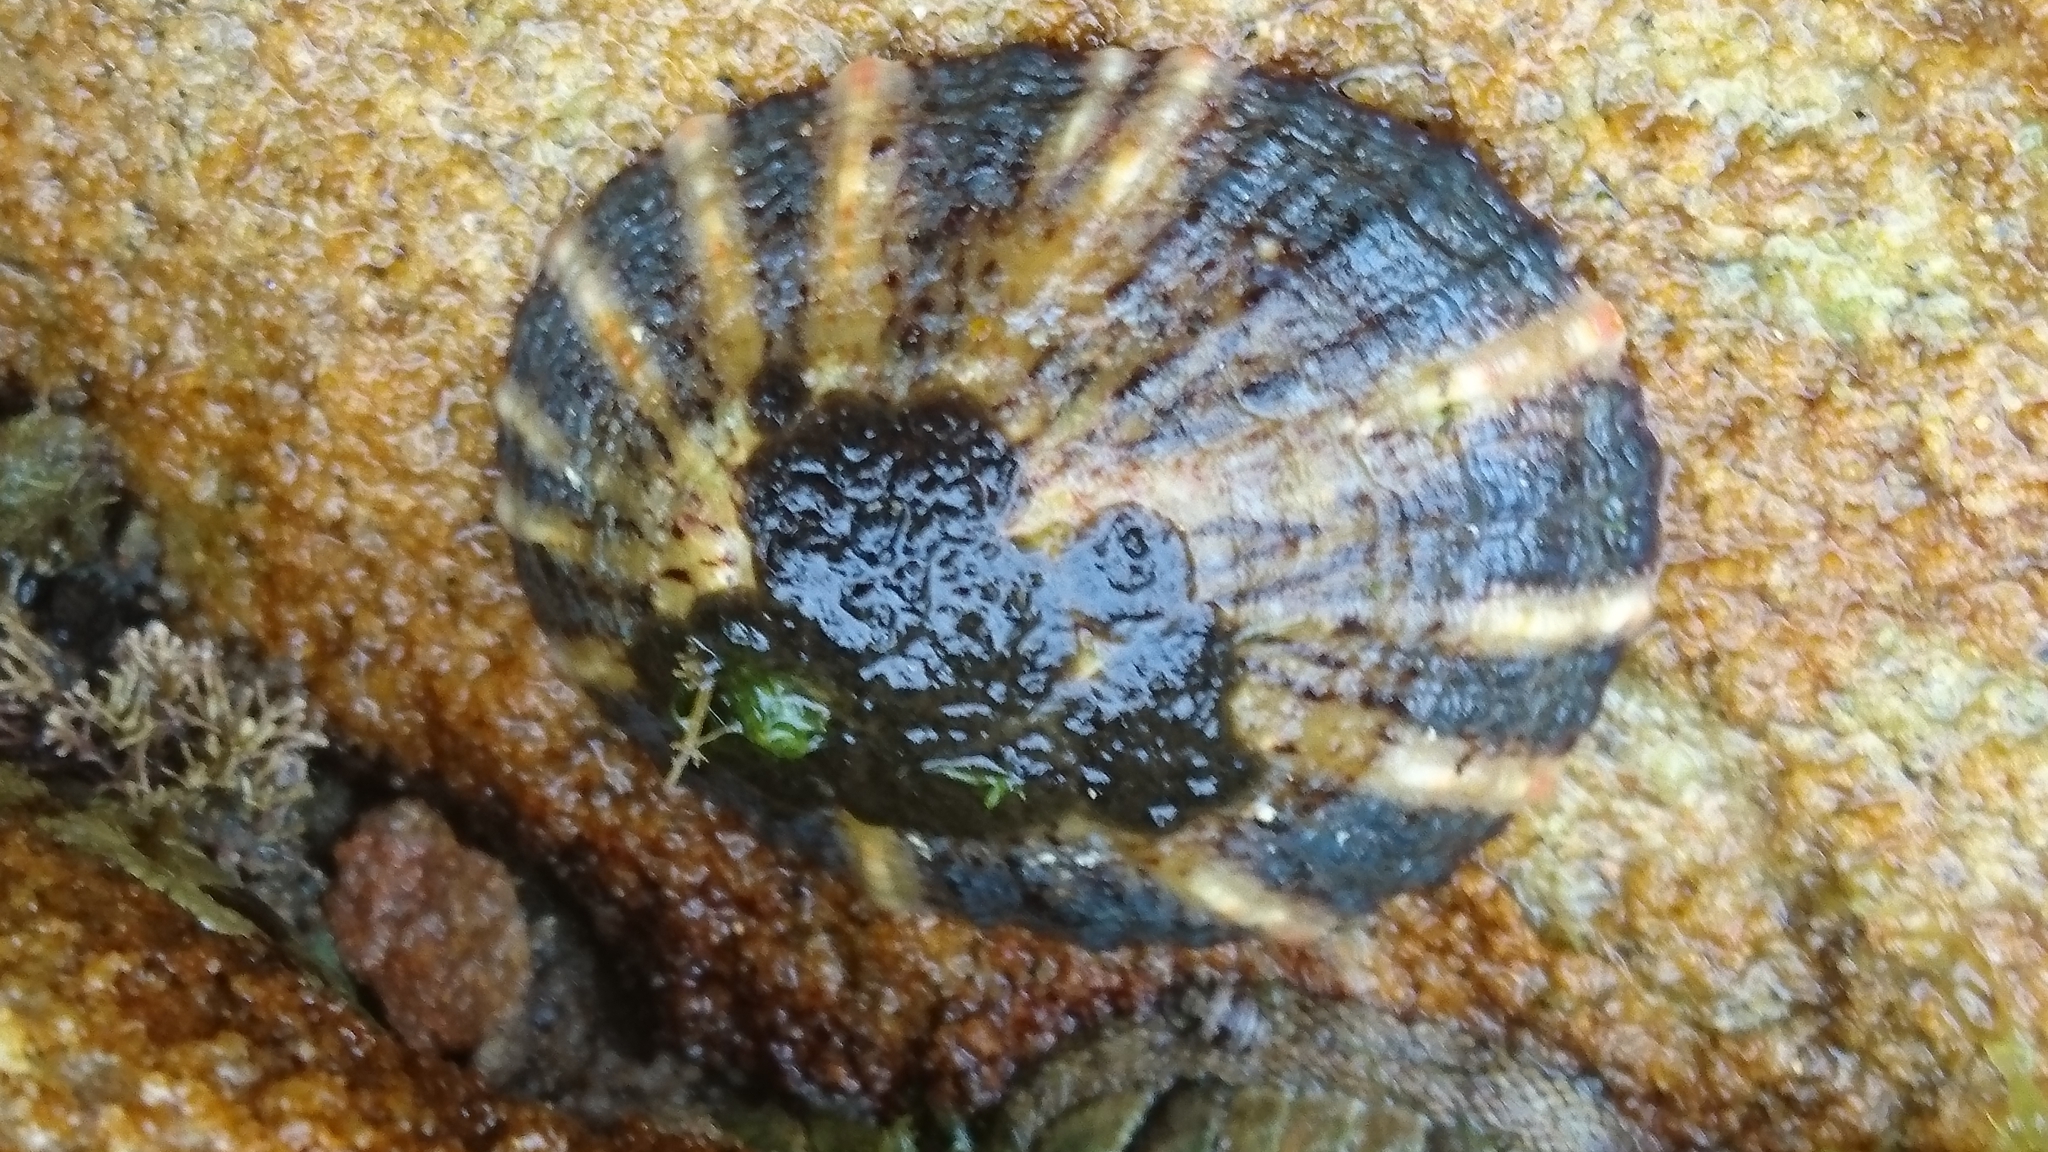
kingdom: Animalia
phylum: Mollusca
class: Gastropoda
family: Nacellidae
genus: Cellana
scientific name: Cellana tramoserica
